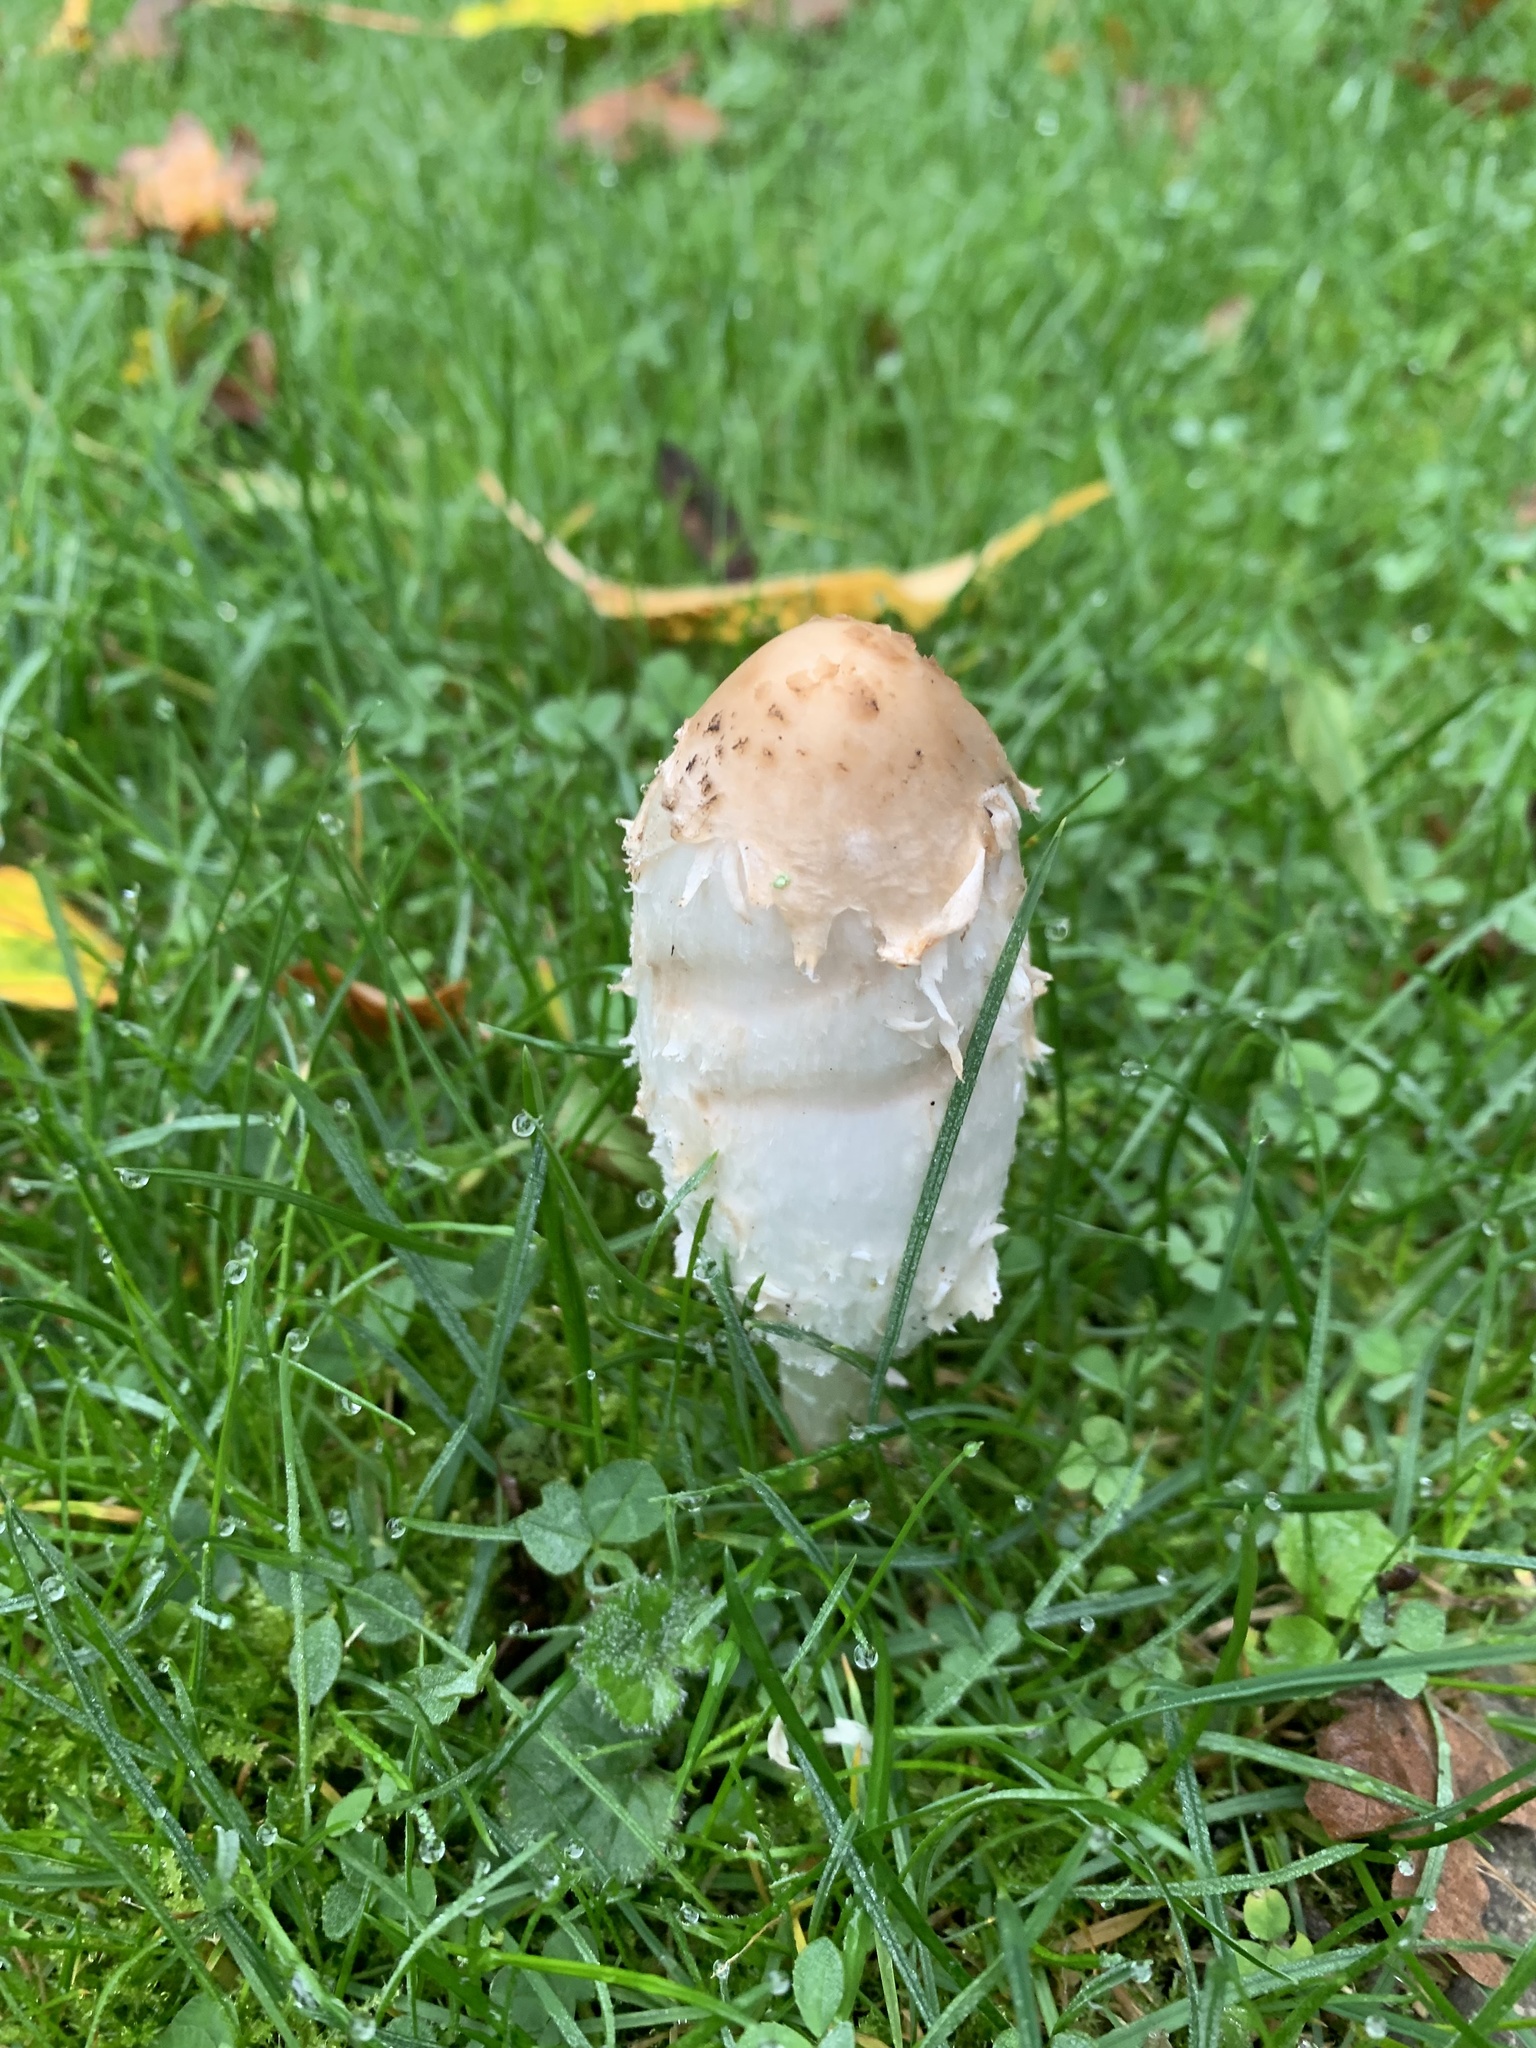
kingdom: Fungi
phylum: Basidiomycota
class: Agaricomycetes
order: Agaricales
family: Agaricaceae
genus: Coprinus
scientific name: Coprinus comatus
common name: Lawyer's wig
